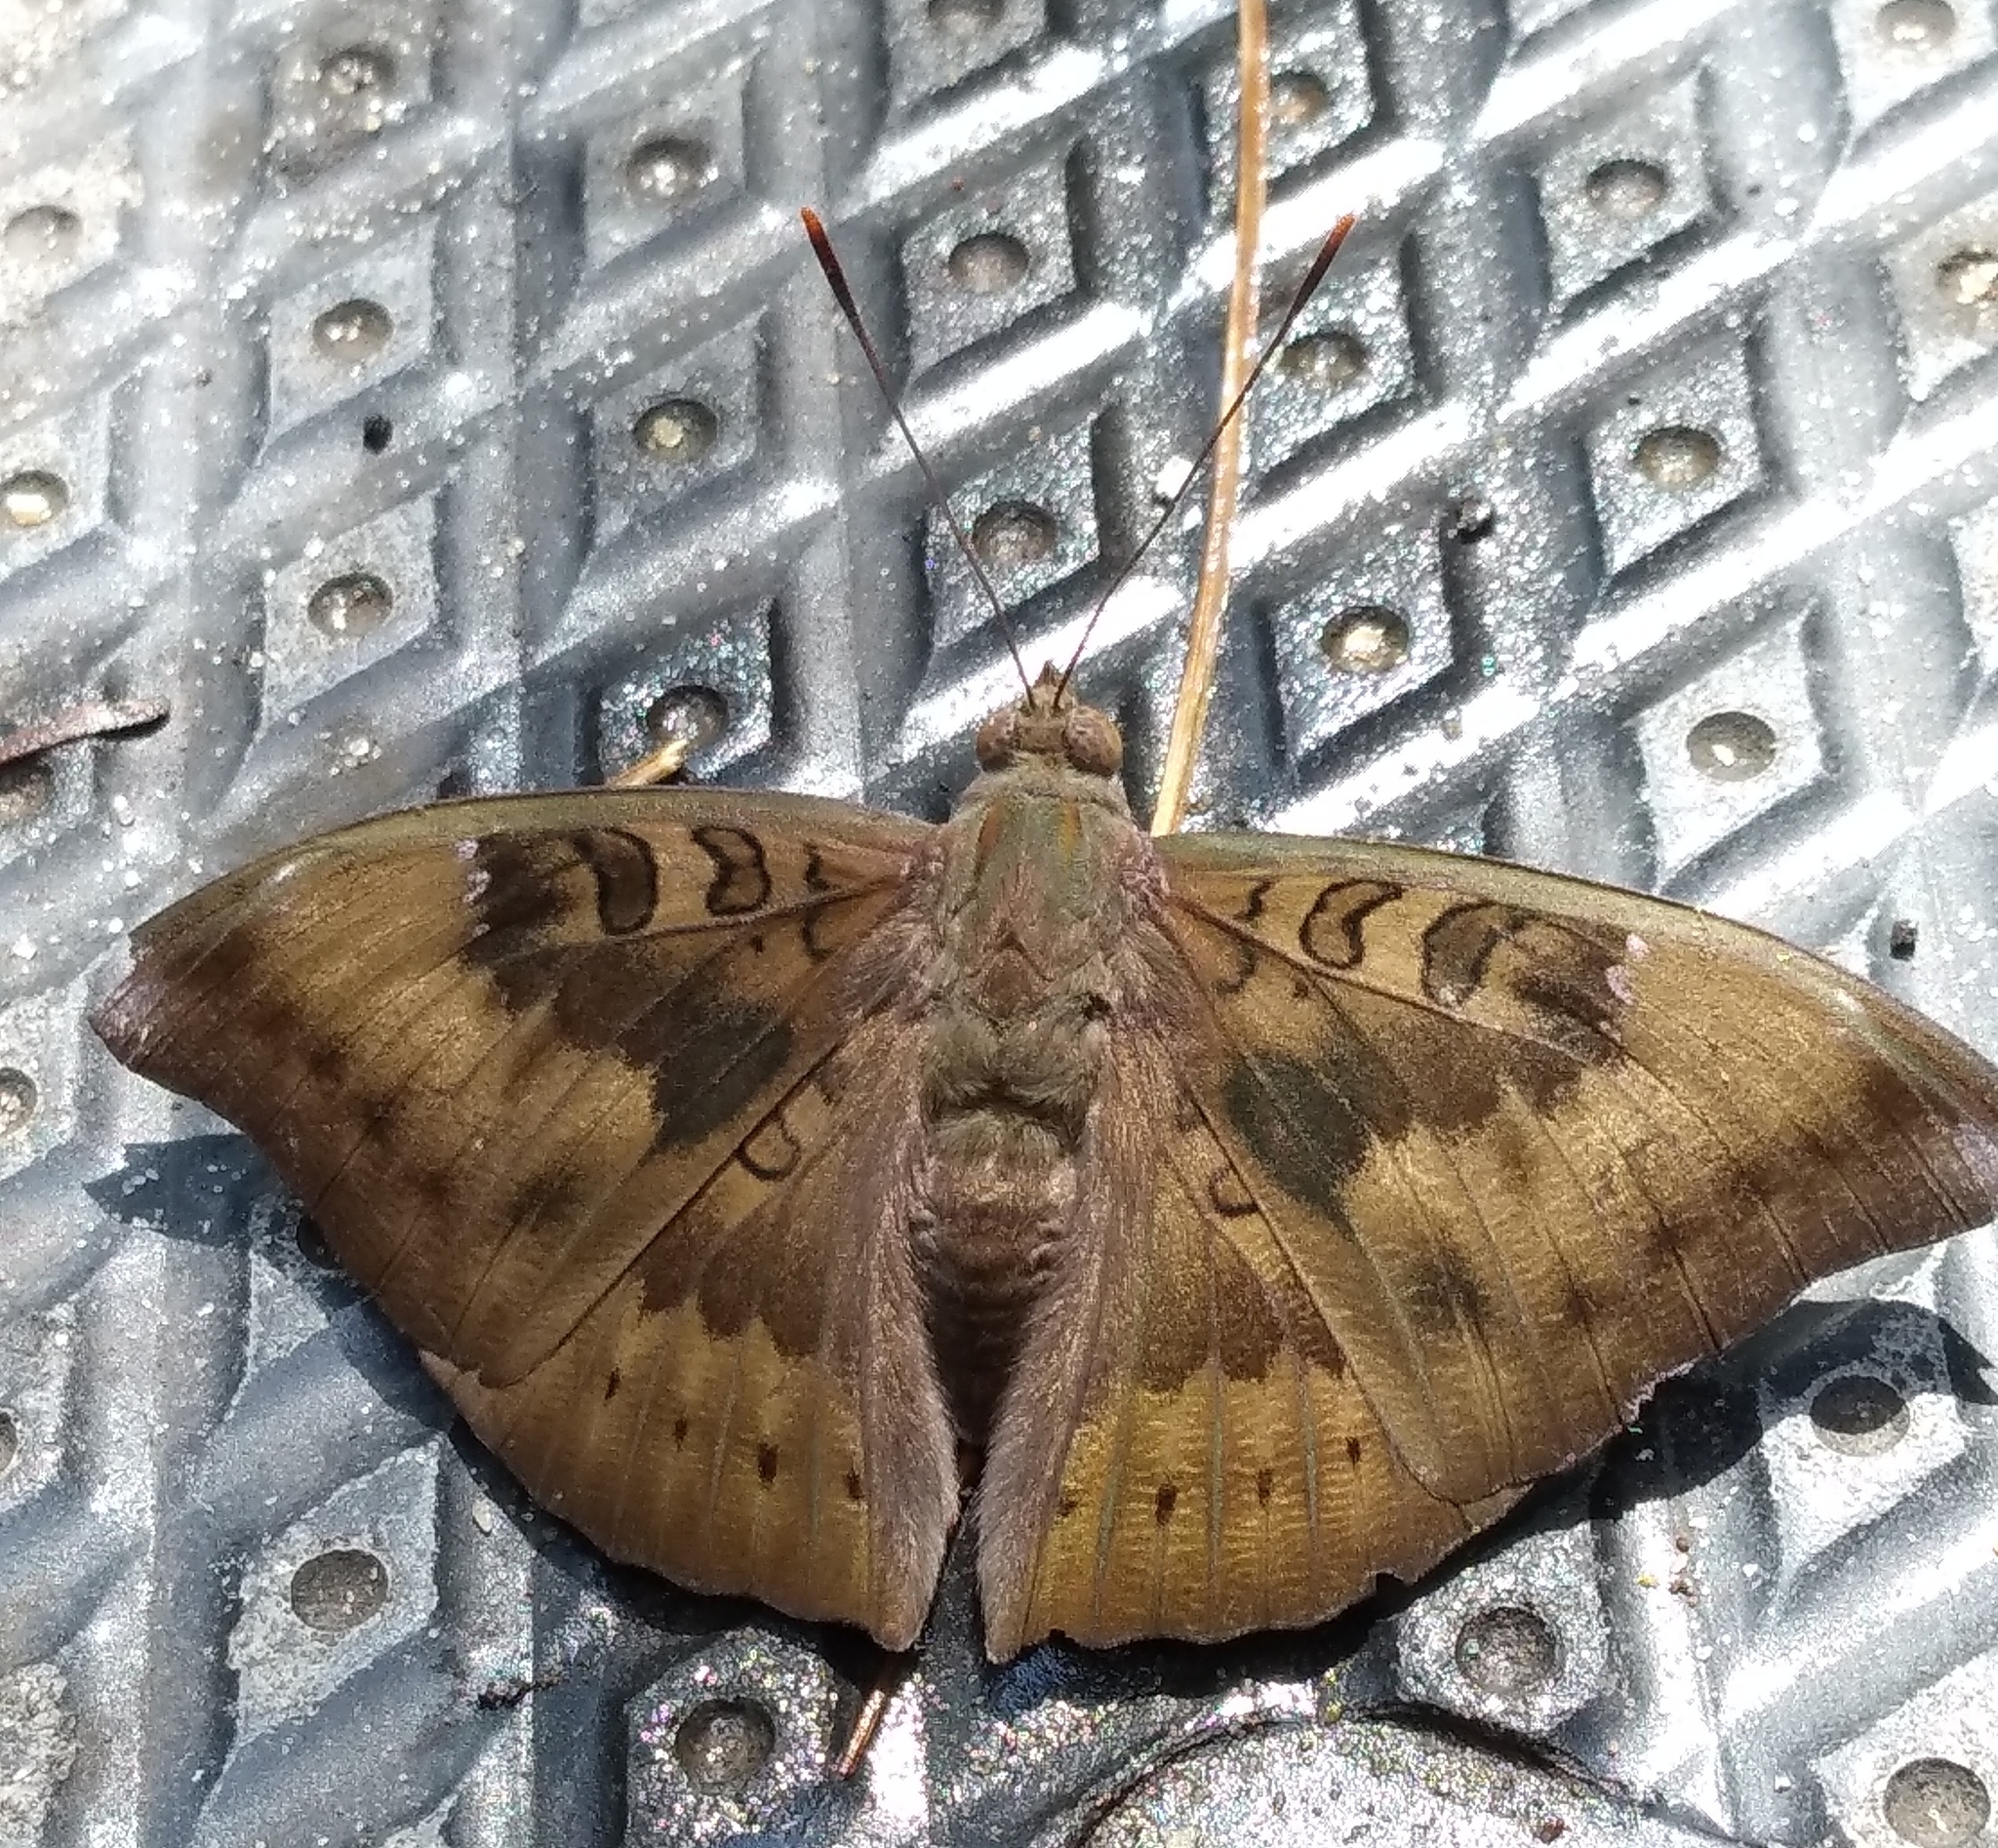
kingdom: Animalia
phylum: Arthropoda
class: Insecta
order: Lepidoptera
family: Nymphalidae
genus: Euthalia
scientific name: Euthalia aconthea
